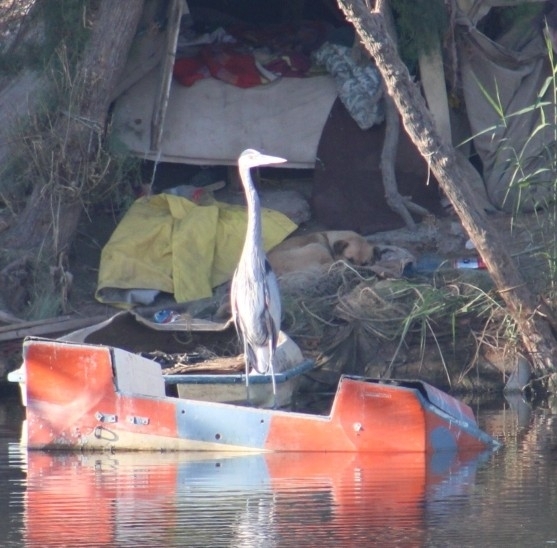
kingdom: Animalia
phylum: Chordata
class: Aves
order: Pelecaniformes
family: Ardeidae
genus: Ardea
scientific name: Ardea herodias
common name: Great blue heron
